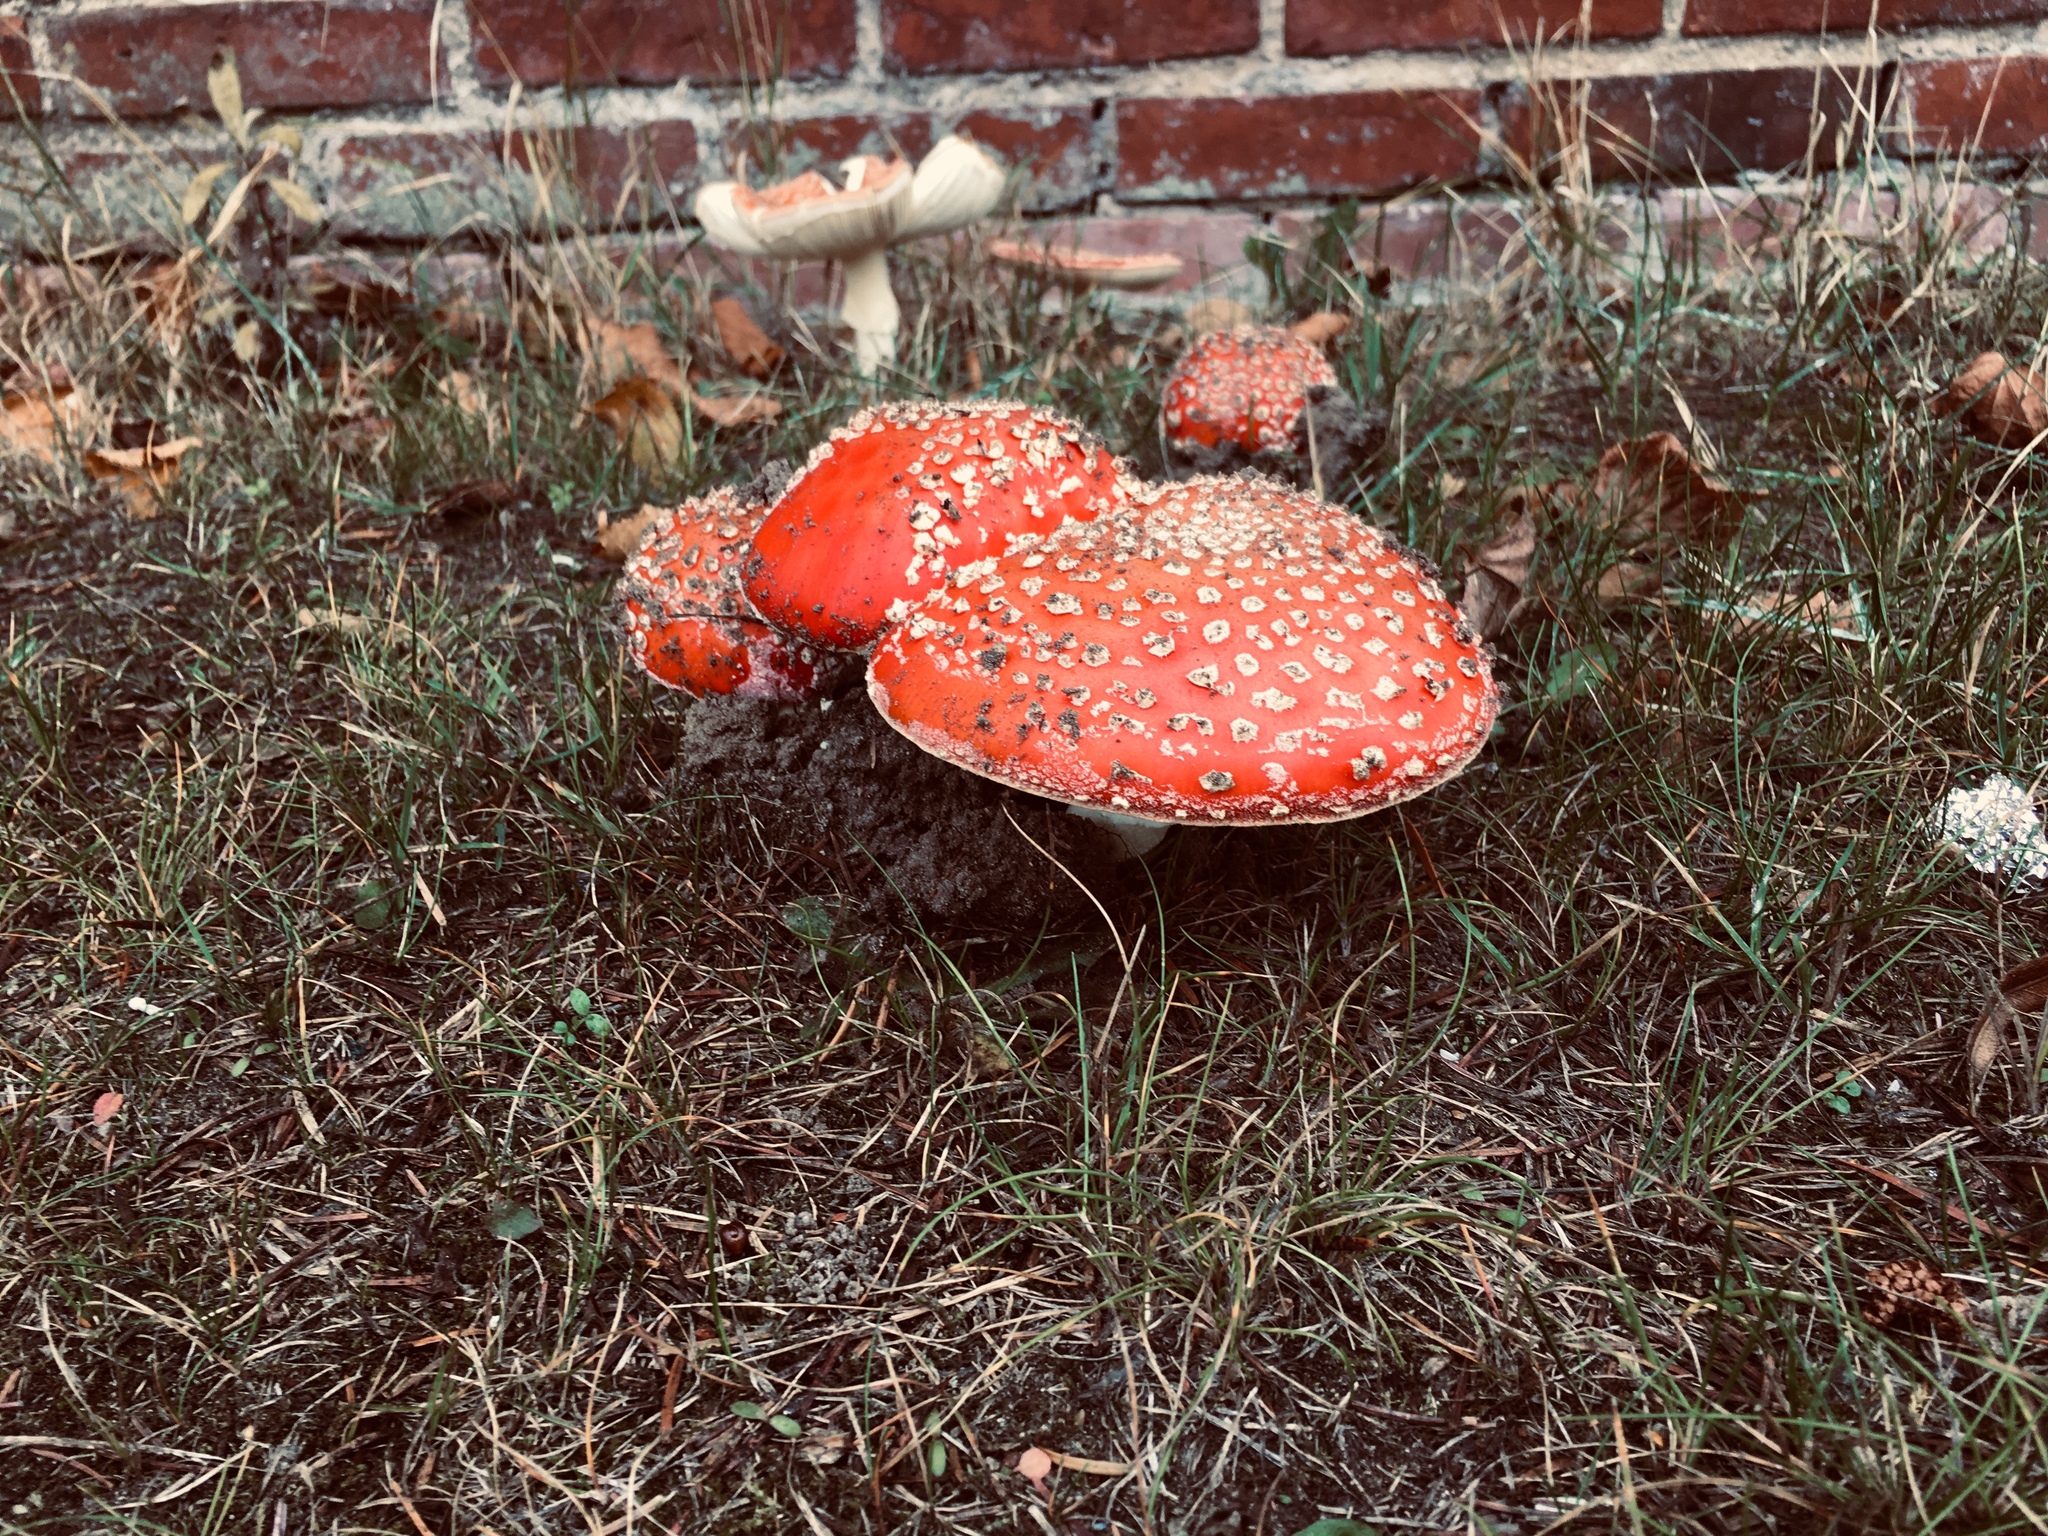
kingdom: Fungi
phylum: Basidiomycota
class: Agaricomycetes
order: Agaricales
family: Amanitaceae
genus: Amanita
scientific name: Amanita muscaria
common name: Fly agaric
